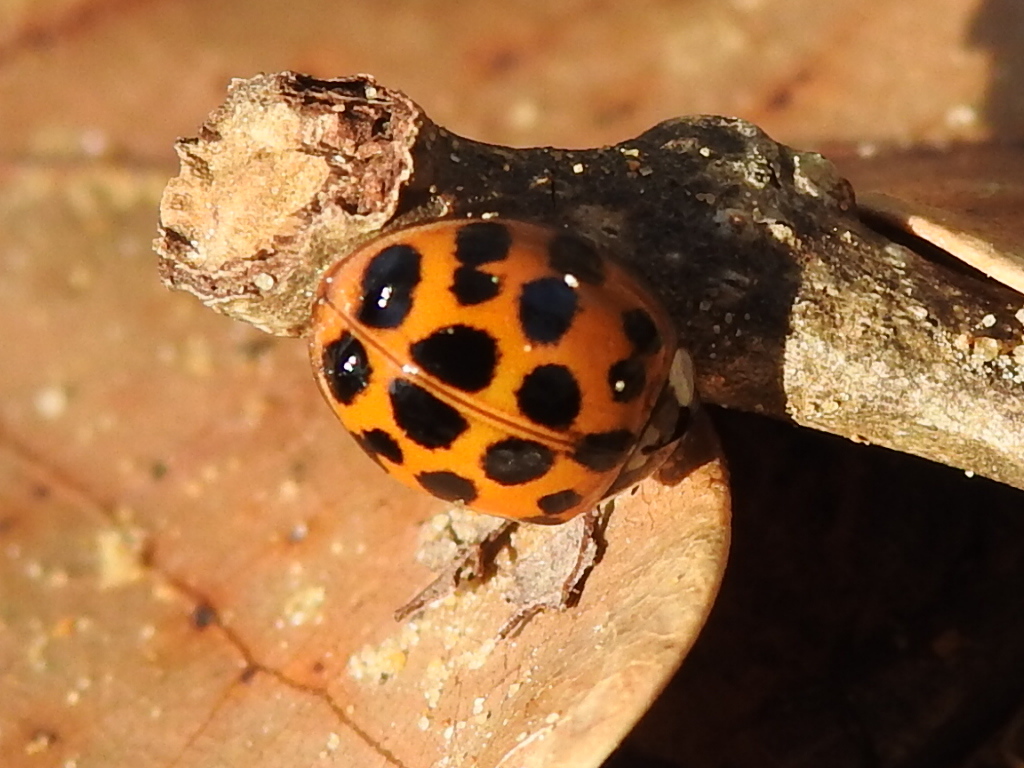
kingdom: Animalia
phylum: Arthropoda
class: Insecta
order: Coleoptera
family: Coccinellidae
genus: Harmonia
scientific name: Harmonia axyridis
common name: Harlequin ladybird
